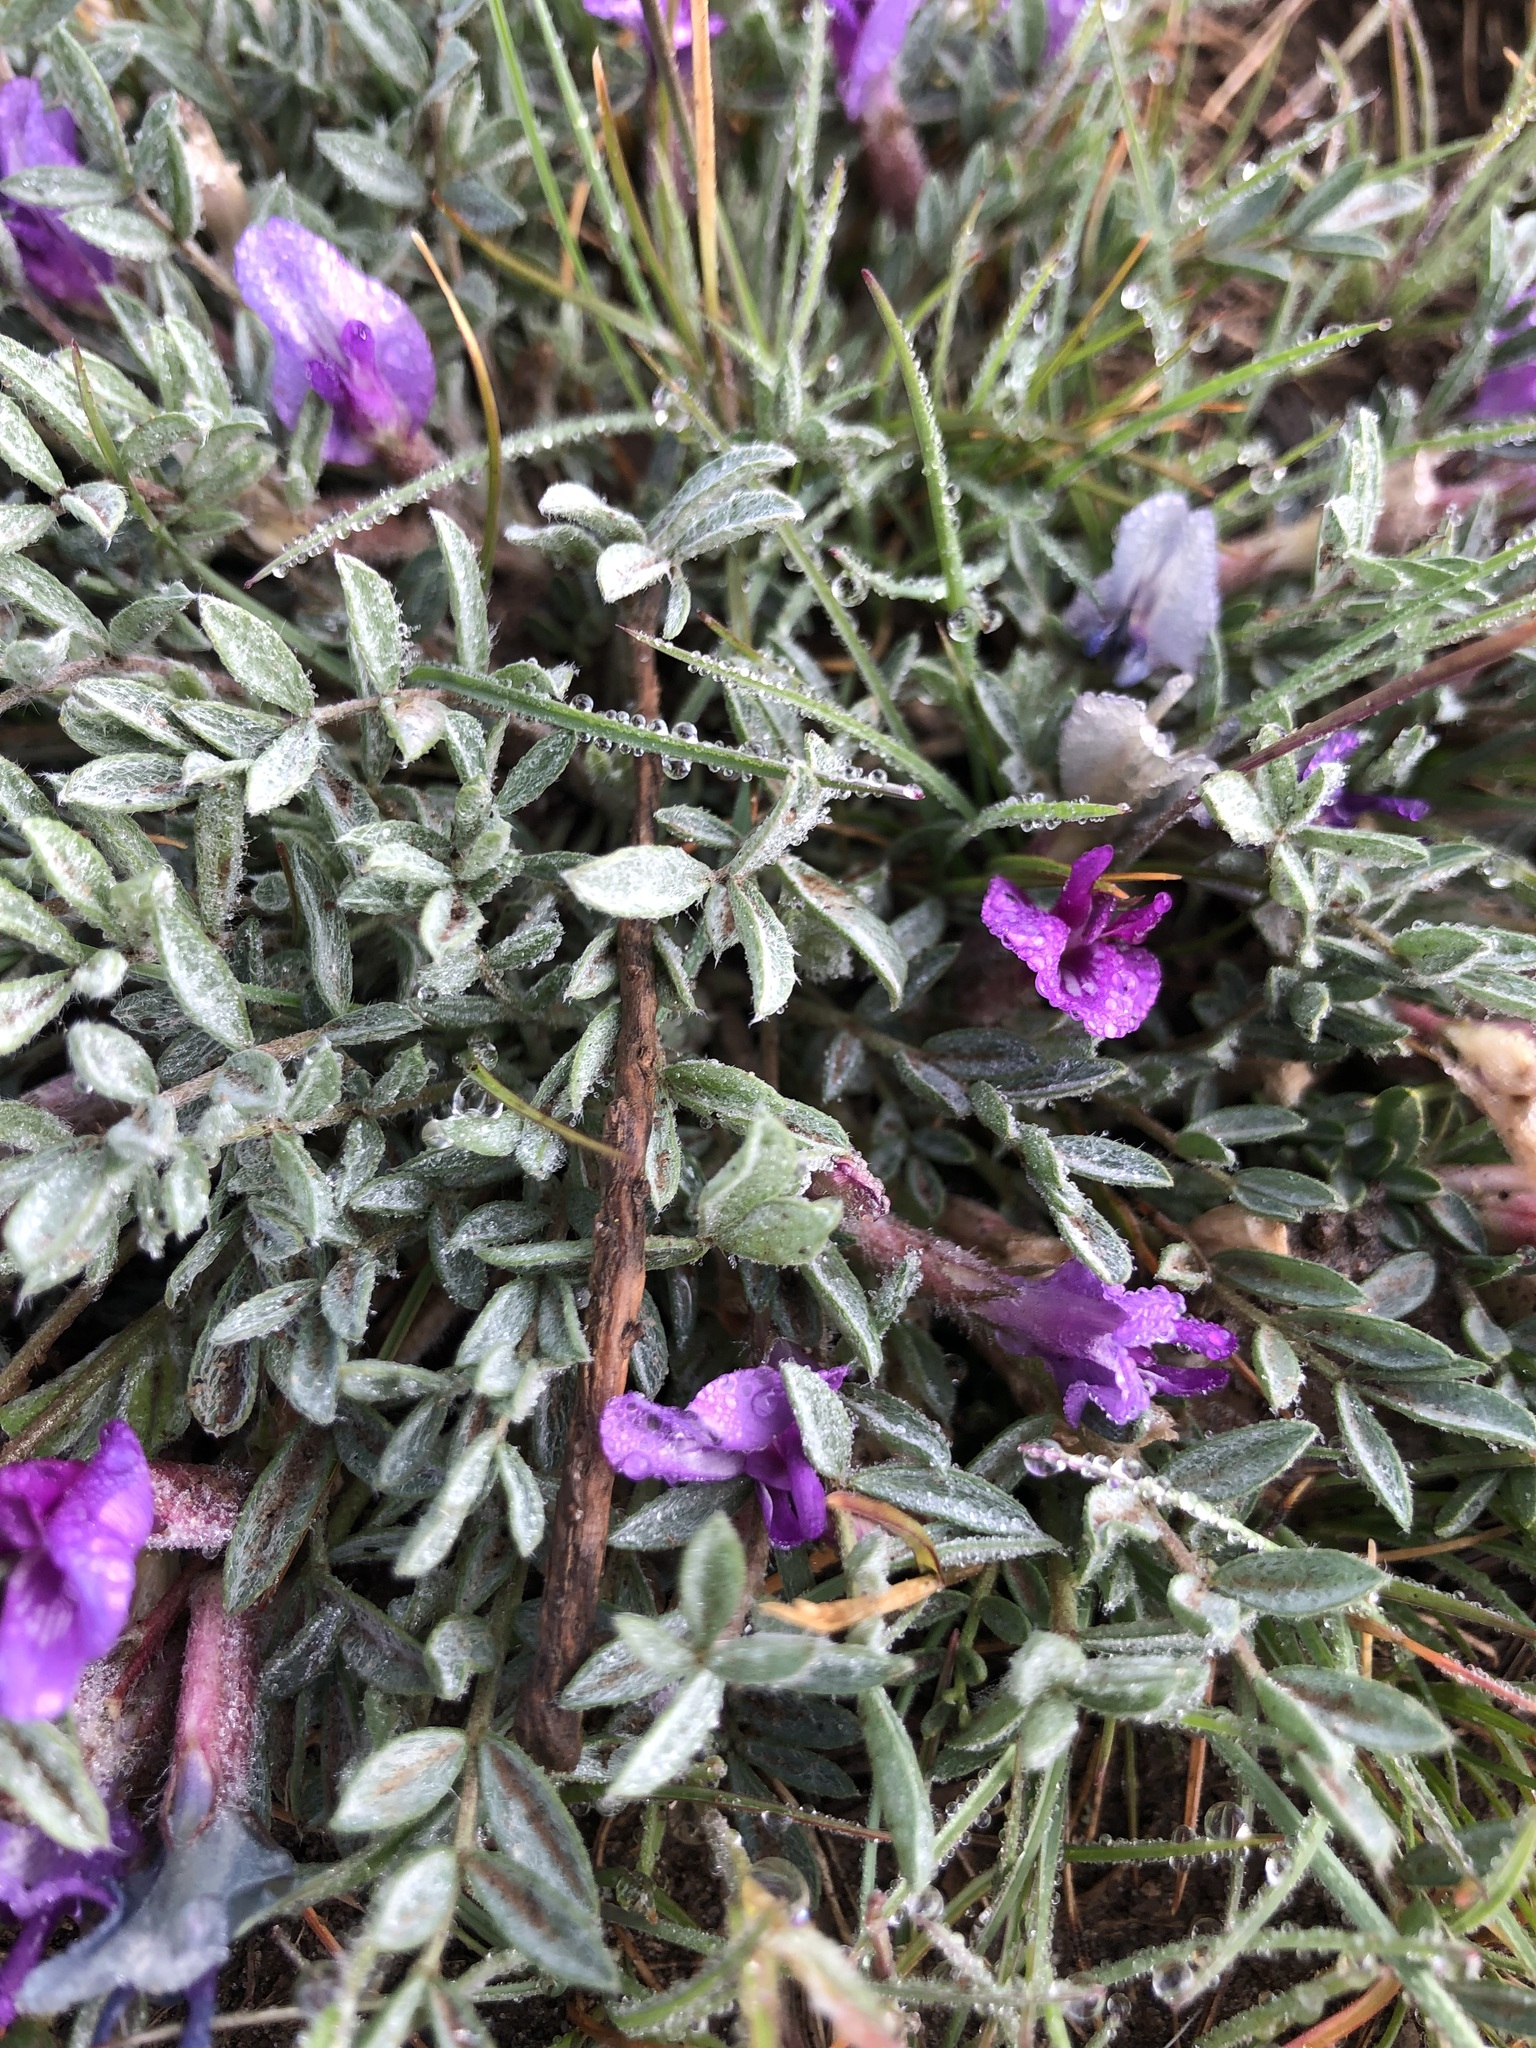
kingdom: Plantae
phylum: Tracheophyta
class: Magnoliopsida
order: Fabales
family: Fabaceae
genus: Astragalus
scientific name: Astragalus purshii
